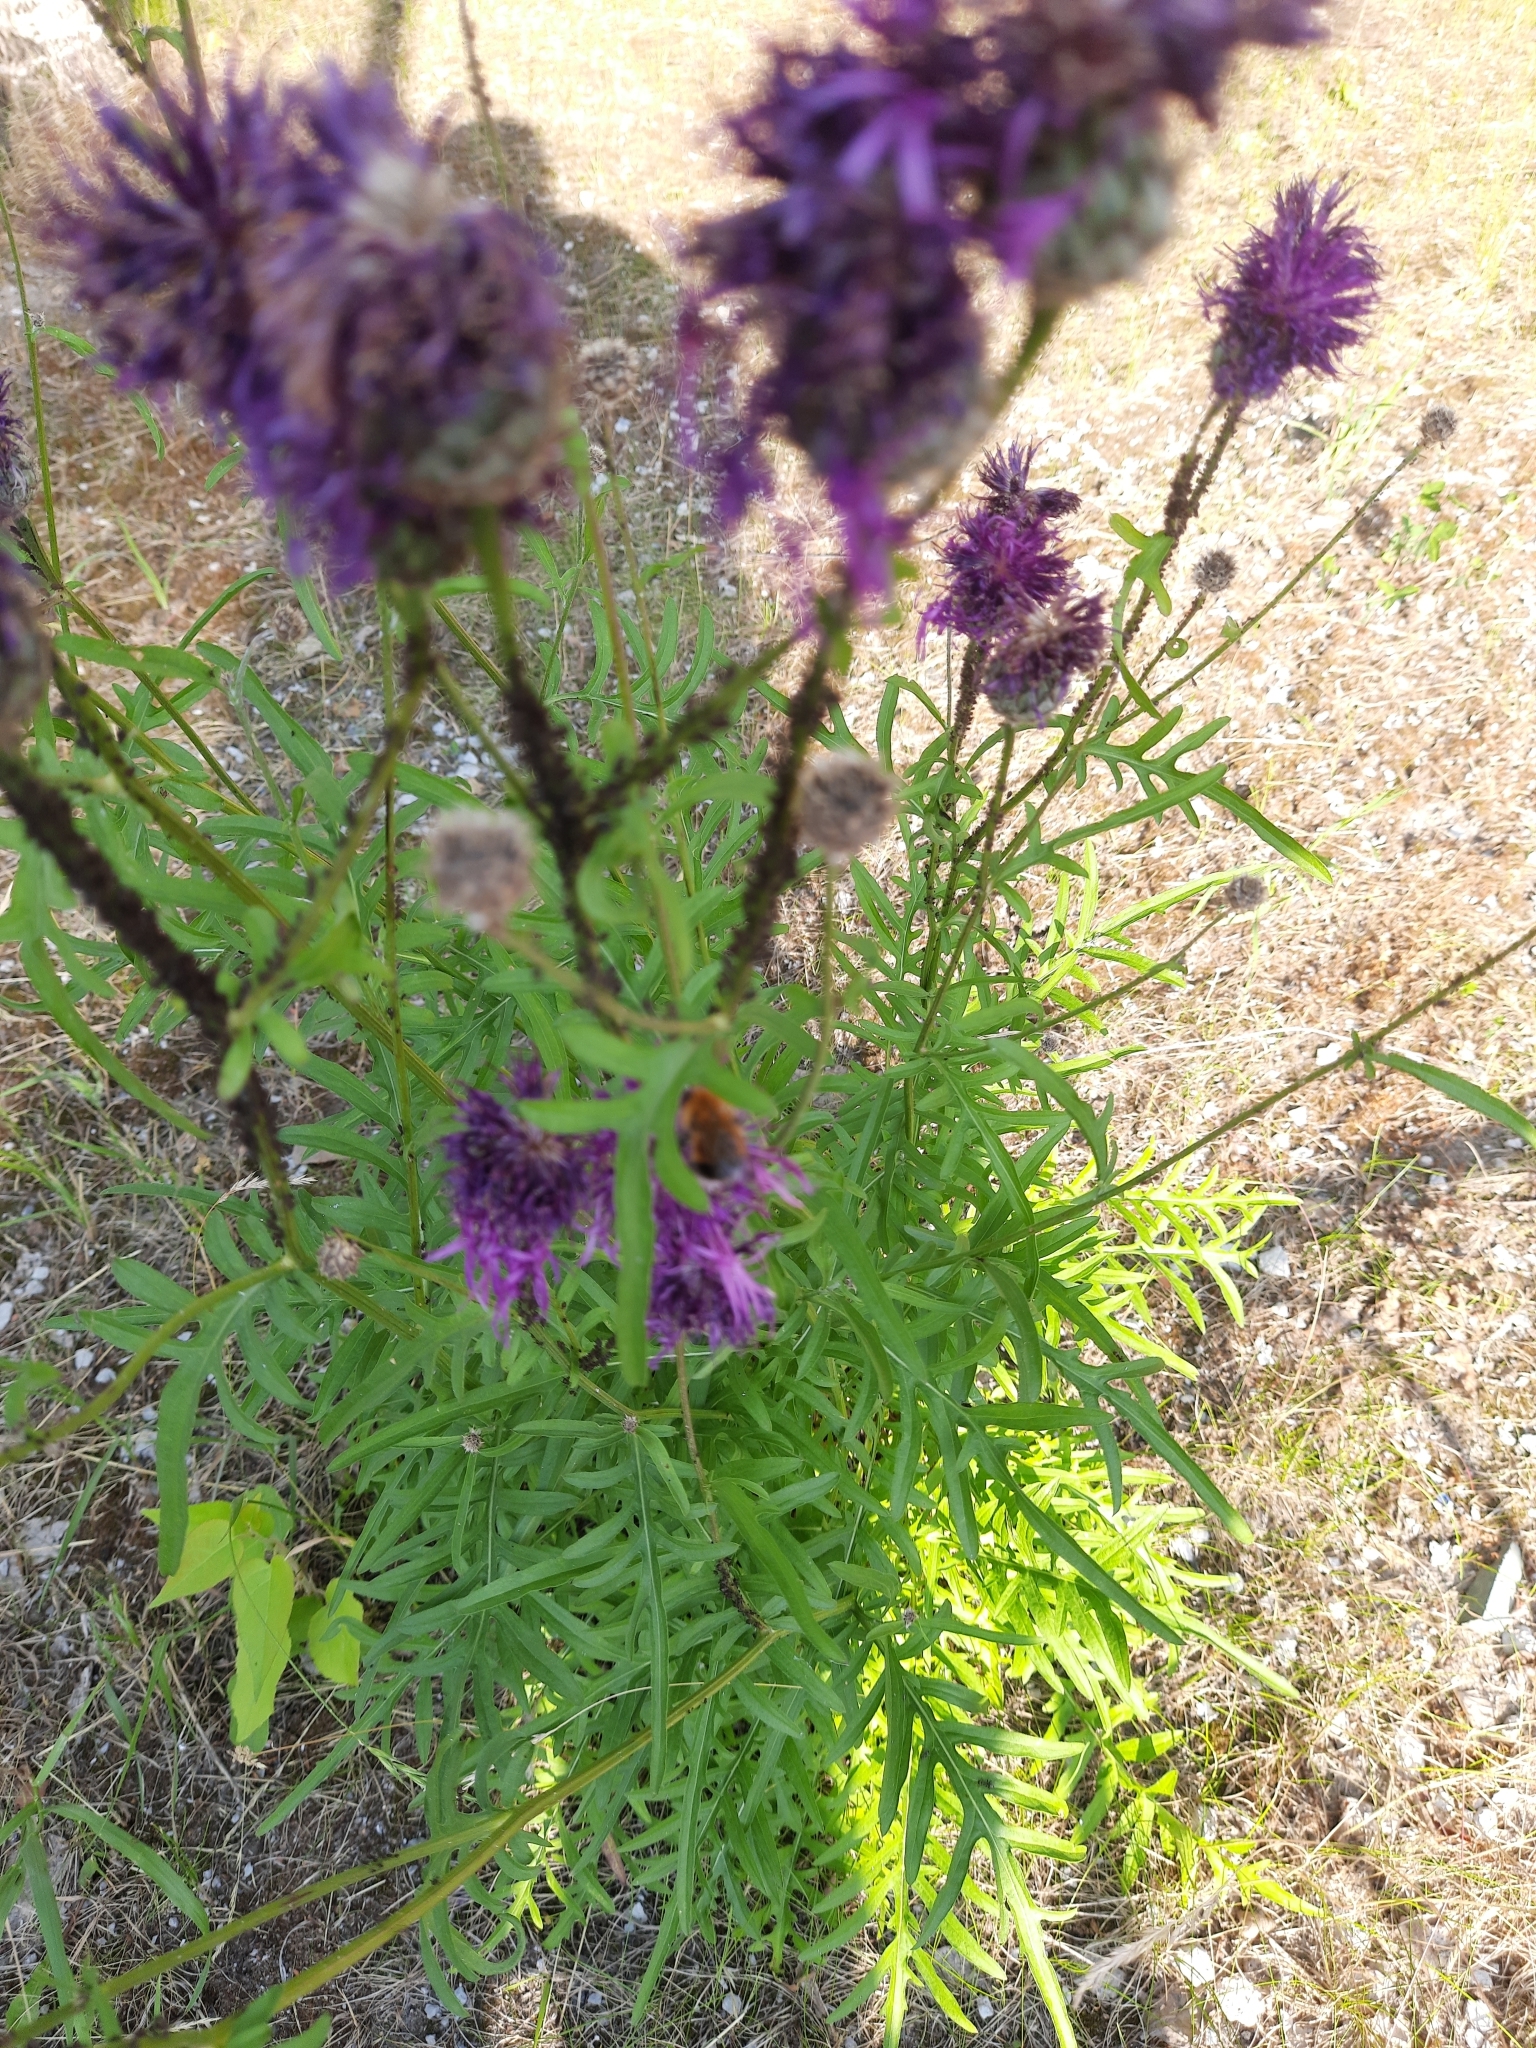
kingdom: Plantae
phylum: Tracheophyta
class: Magnoliopsida
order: Asterales
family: Asteraceae
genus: Centaurea
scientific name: Centaurea scabiosa
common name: Greater knapweed
